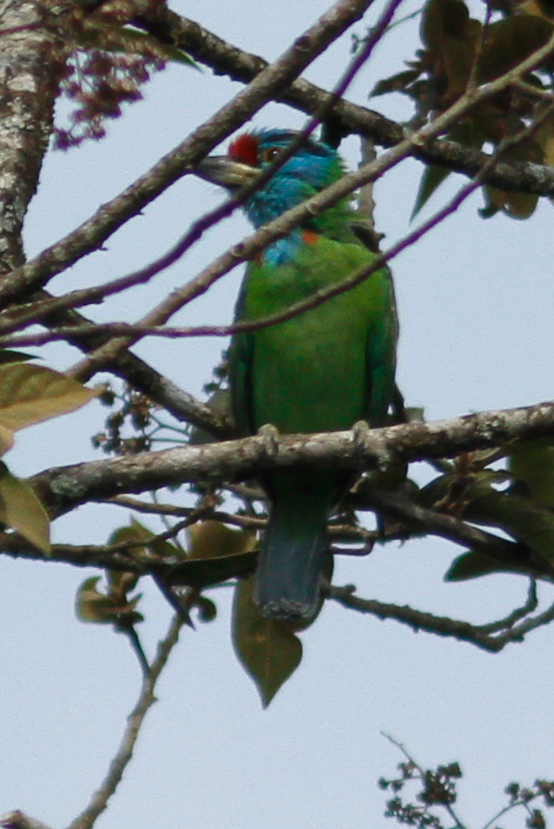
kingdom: Animalia
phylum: Chordata
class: Aves
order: Piciformes
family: Megalaimidae
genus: Psilopogon
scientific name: Psilopogon asiaticus
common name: Blue-throated barbet
